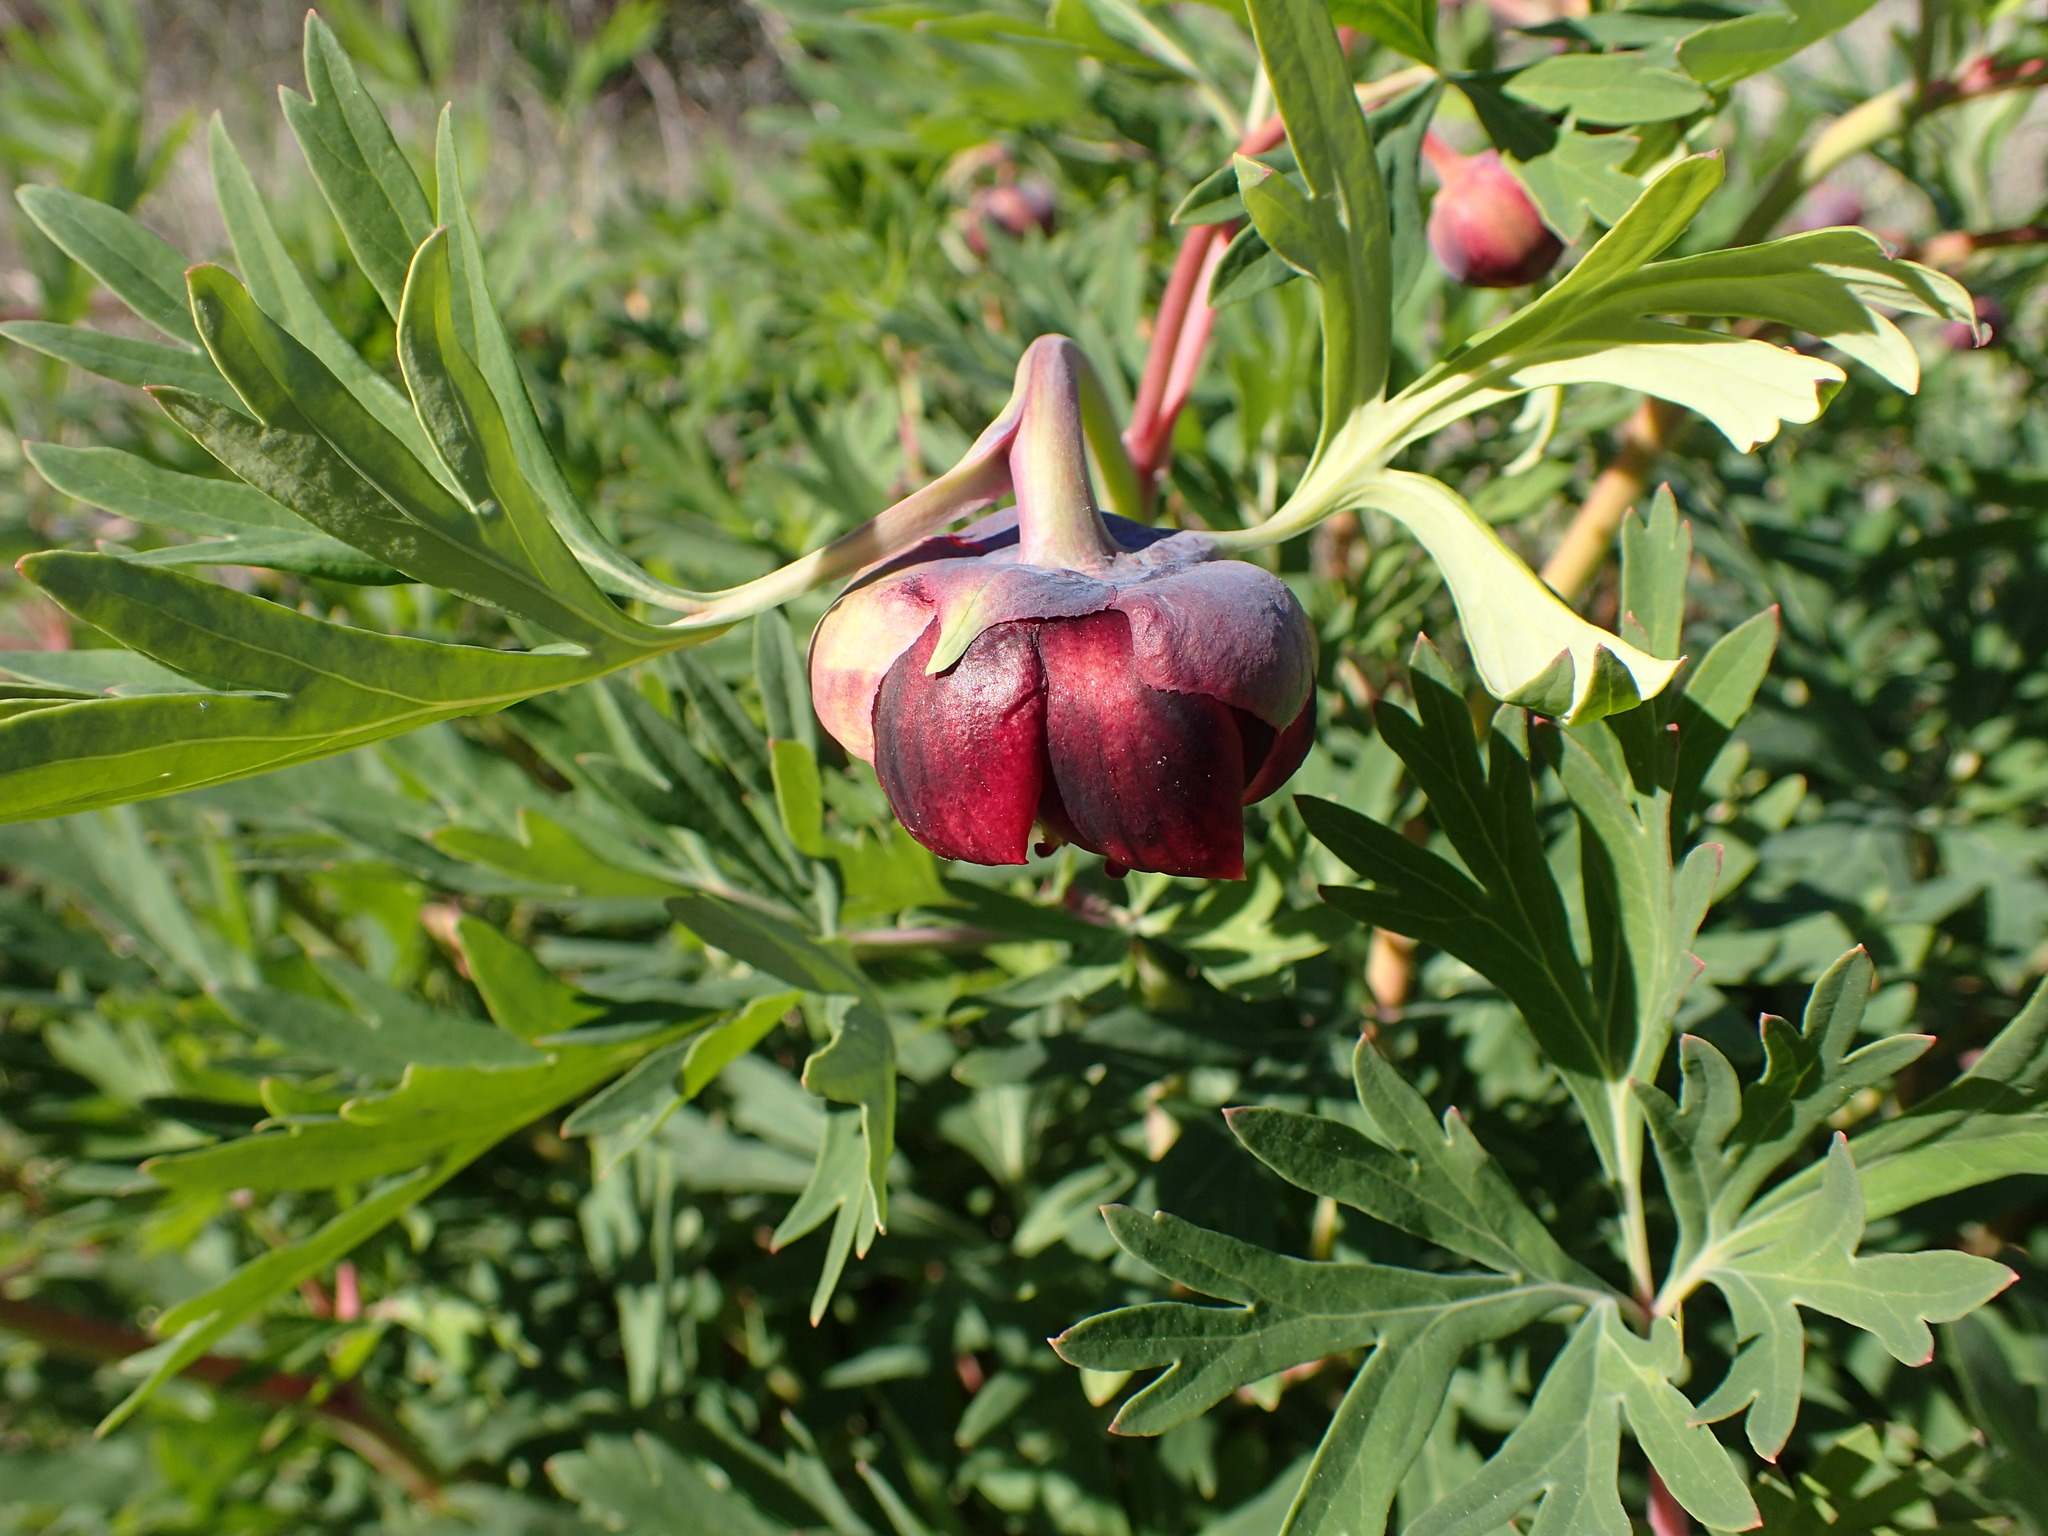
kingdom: Plantae
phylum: Tracheophyta
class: Magnoliopsida
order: Saxifragales
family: Paeoniaceae
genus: Paeonia
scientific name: Paeonia californica
